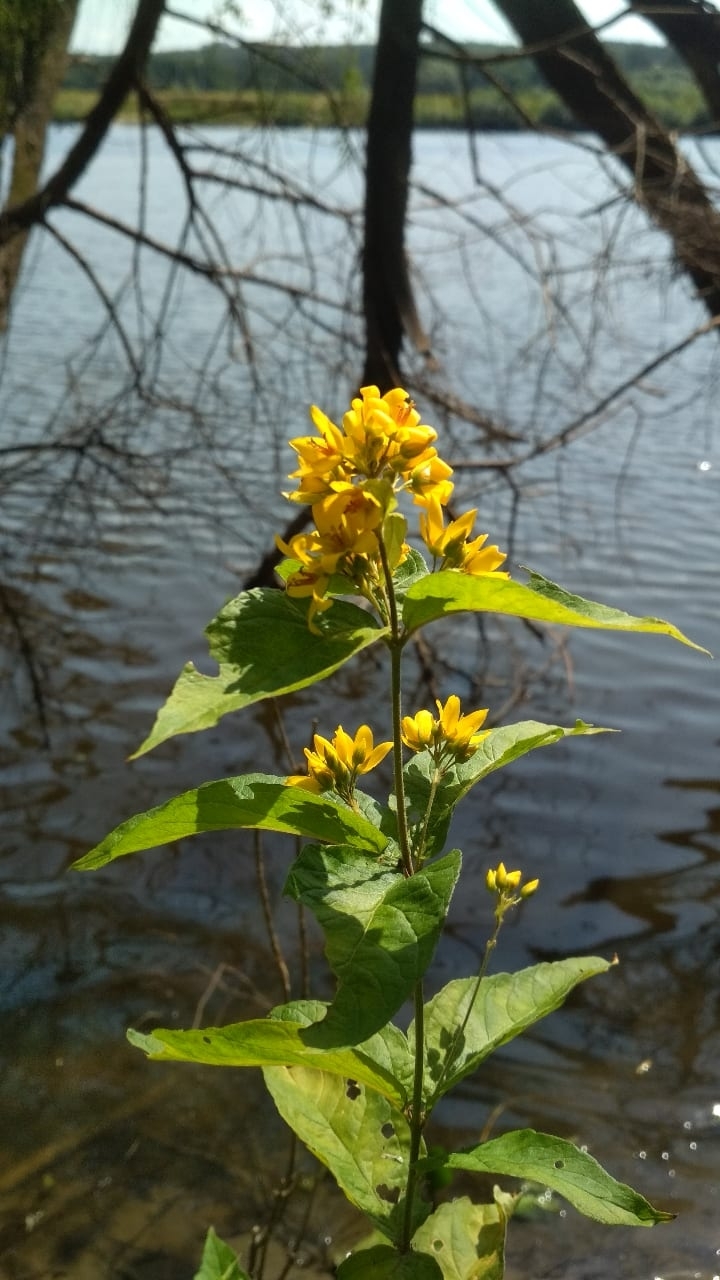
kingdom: Plantae
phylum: Tracheophyta
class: Magnoliopsida
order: Ericales
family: Primulaceae
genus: Lysimachia
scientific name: Lysimachia vulgaris
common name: Yellow loosestrife
